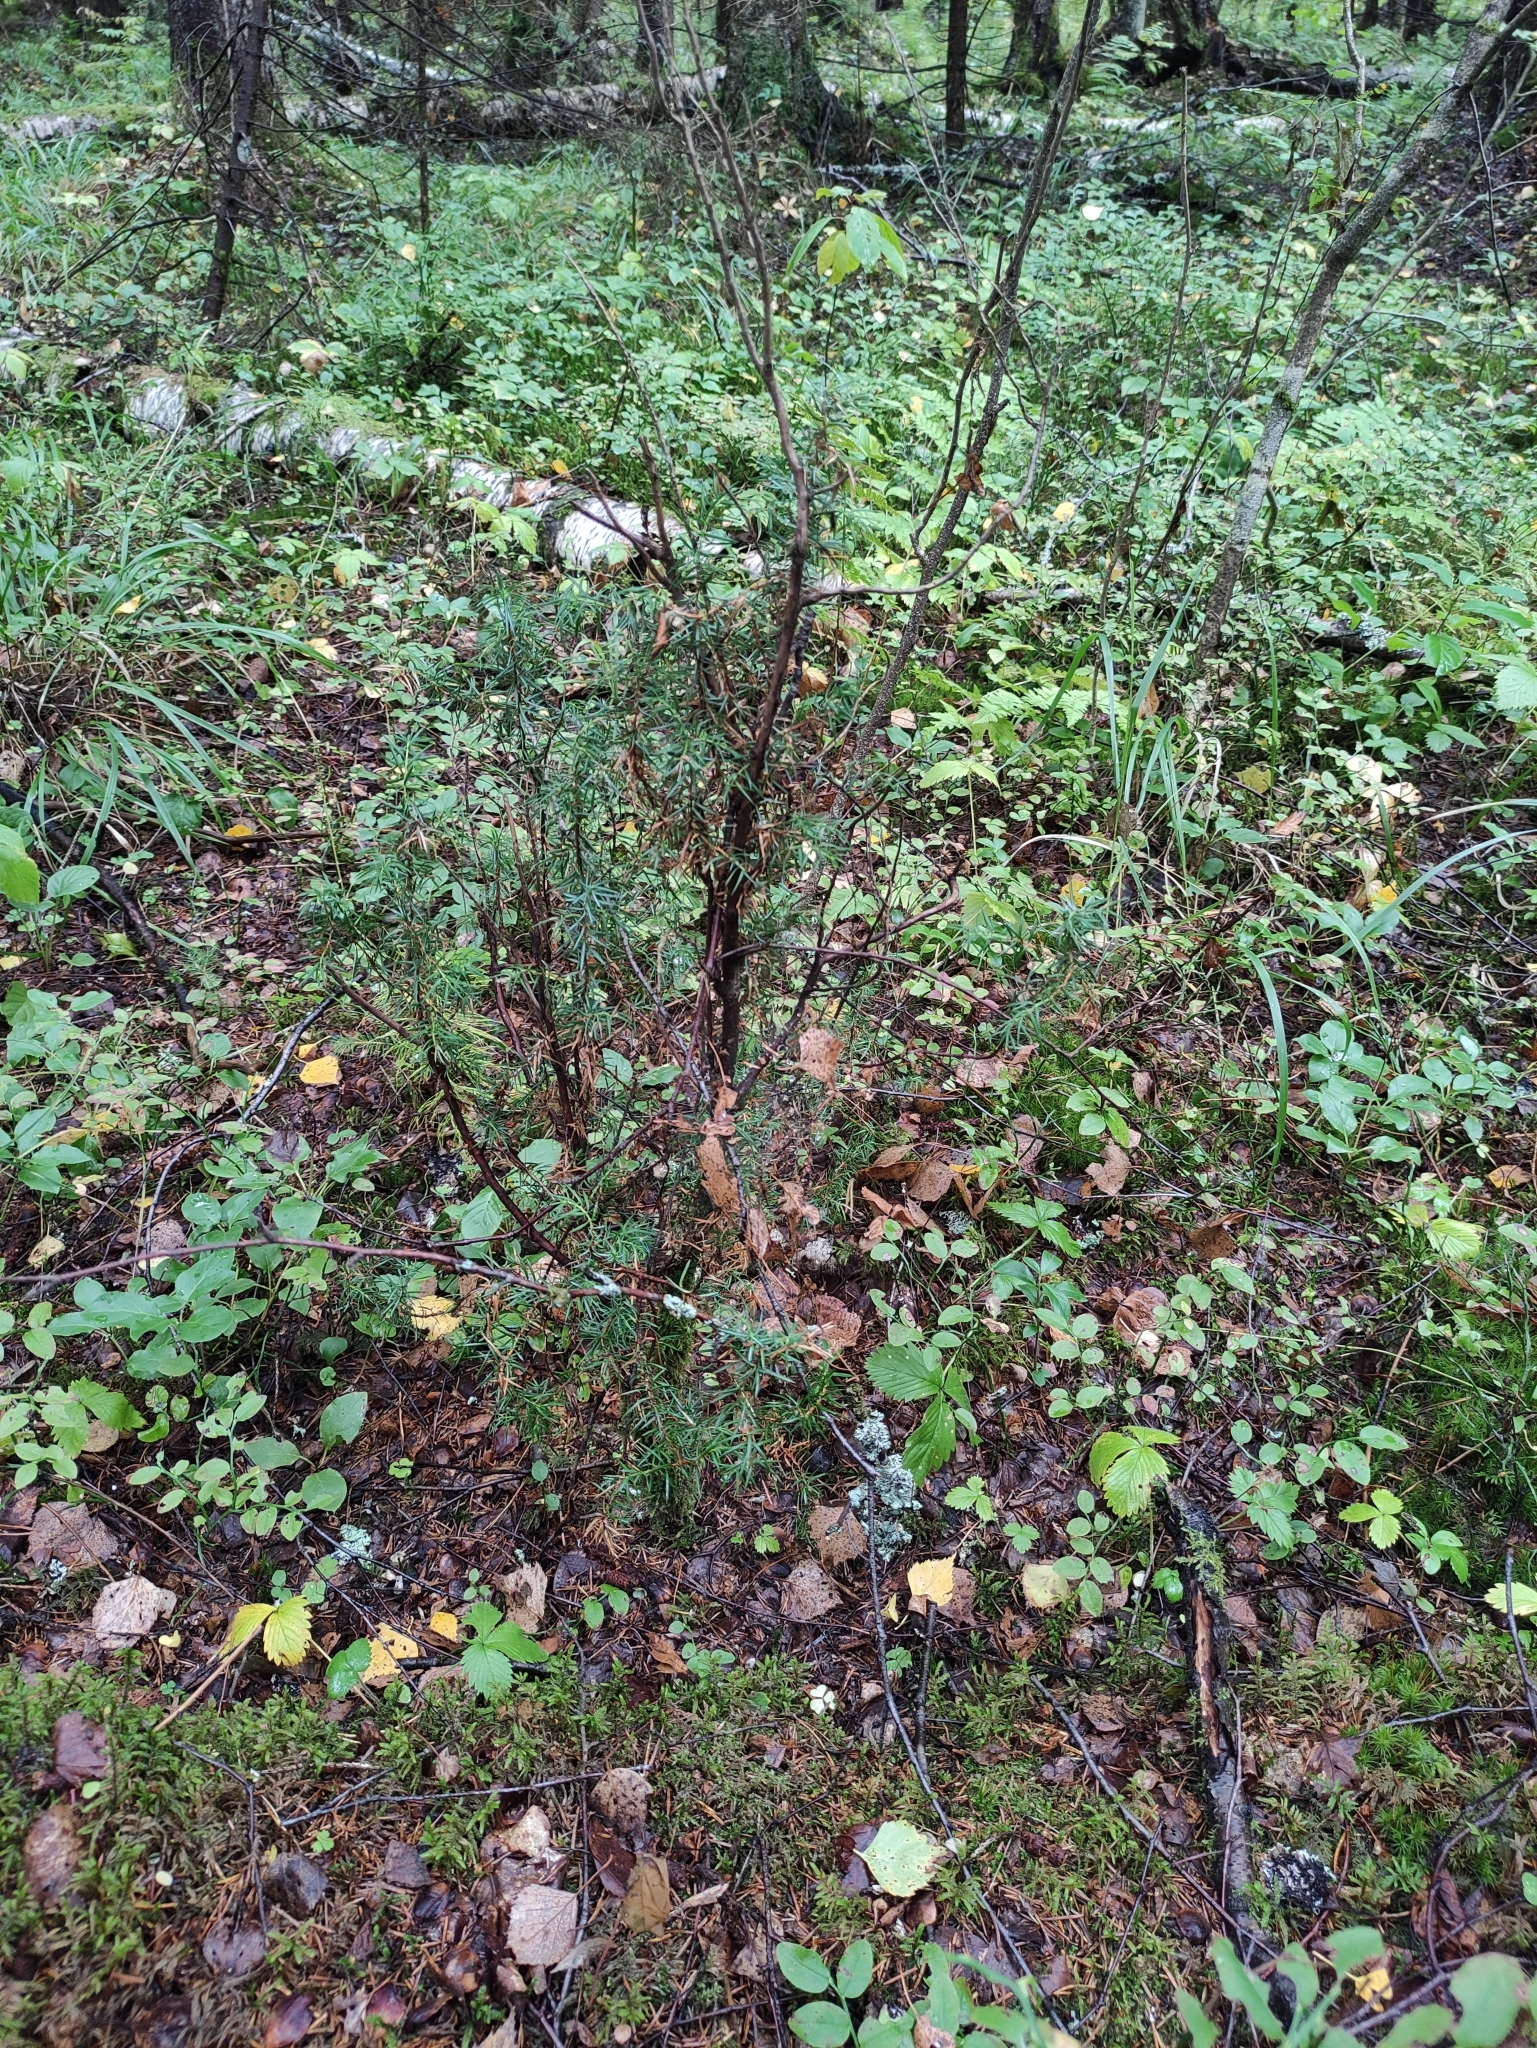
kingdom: Plantae
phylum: Tracheophyta
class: Pinopsida
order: Pinales
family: Cupressaceae
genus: Juniperus
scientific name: Juniperus communis
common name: Common juniper
